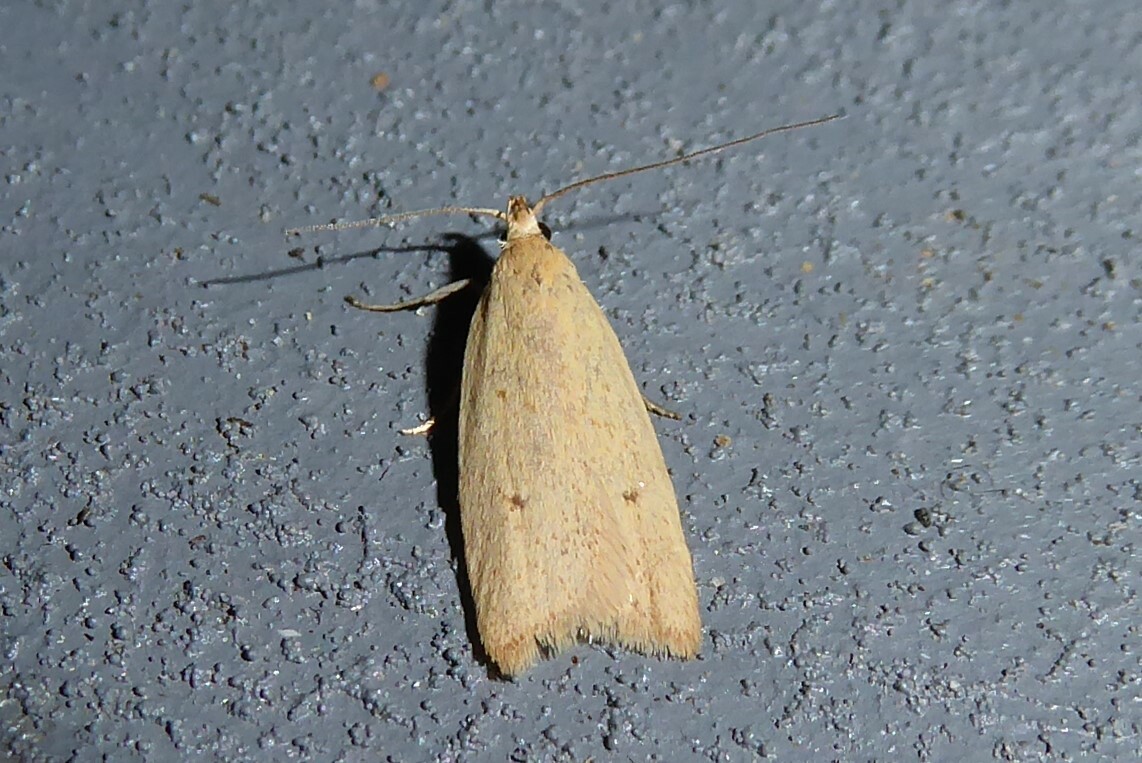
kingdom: Animalia
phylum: Arthropoda
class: Insecta
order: Lepidoptera
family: Oecophoridae
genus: Gymnobathra
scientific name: Gymnobathra sarcoxantha
